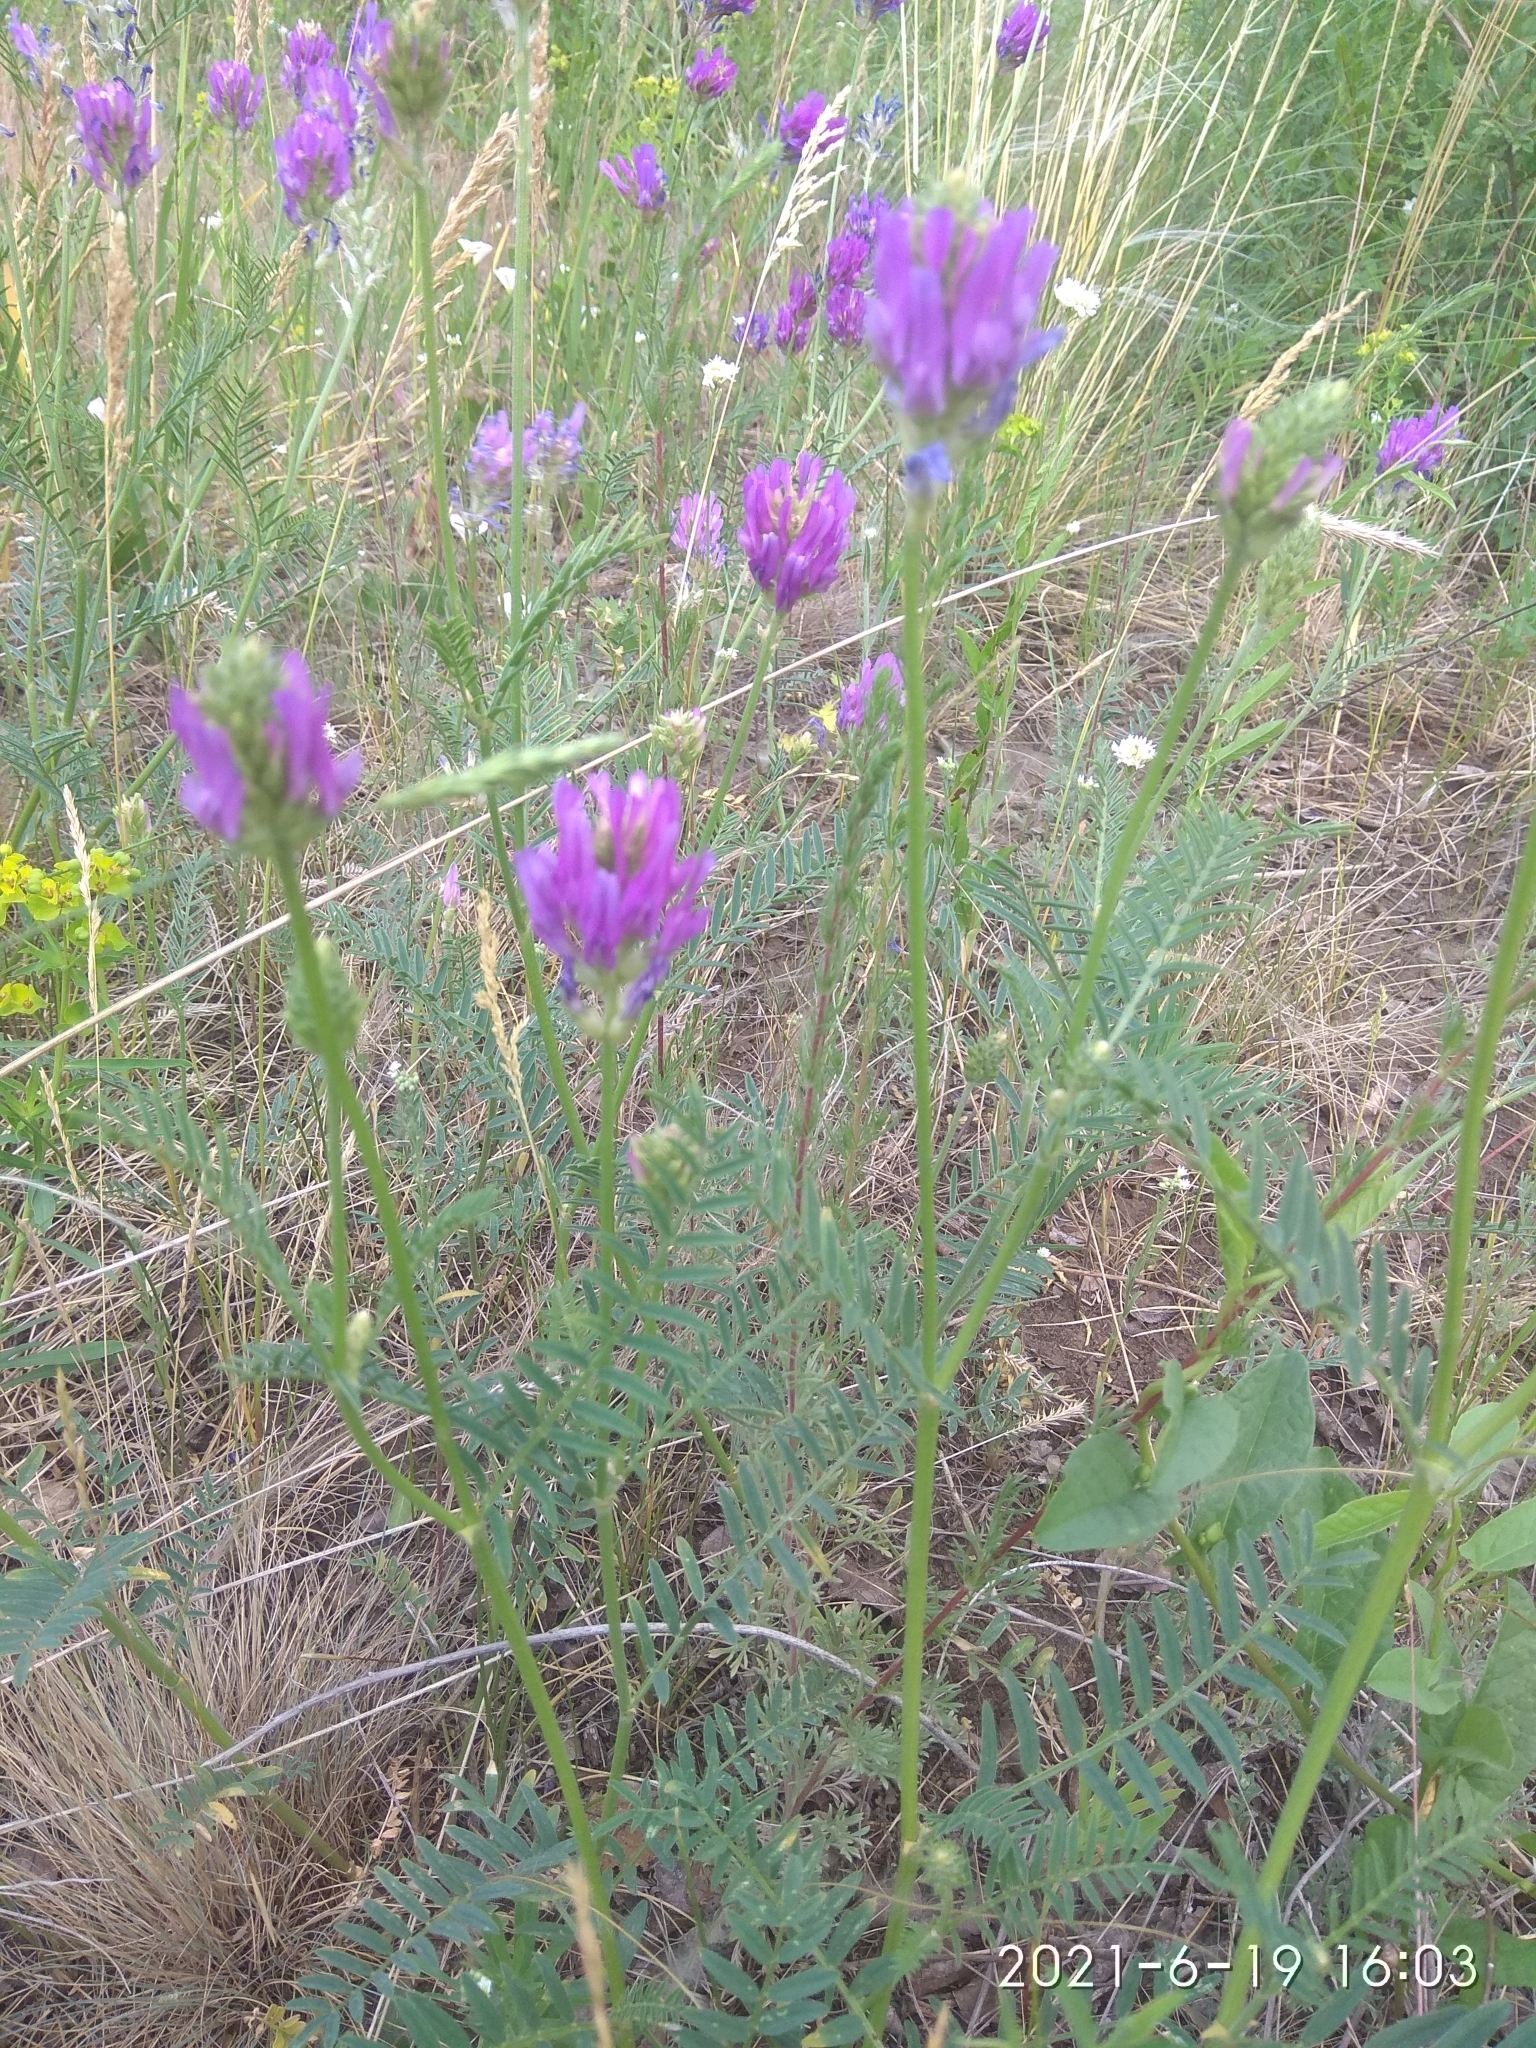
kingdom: Plantae
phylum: Tracheophyta
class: Magnoliopsida
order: Fabales
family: Fabaceae
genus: Astragalus
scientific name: Astragalus onobrychis
